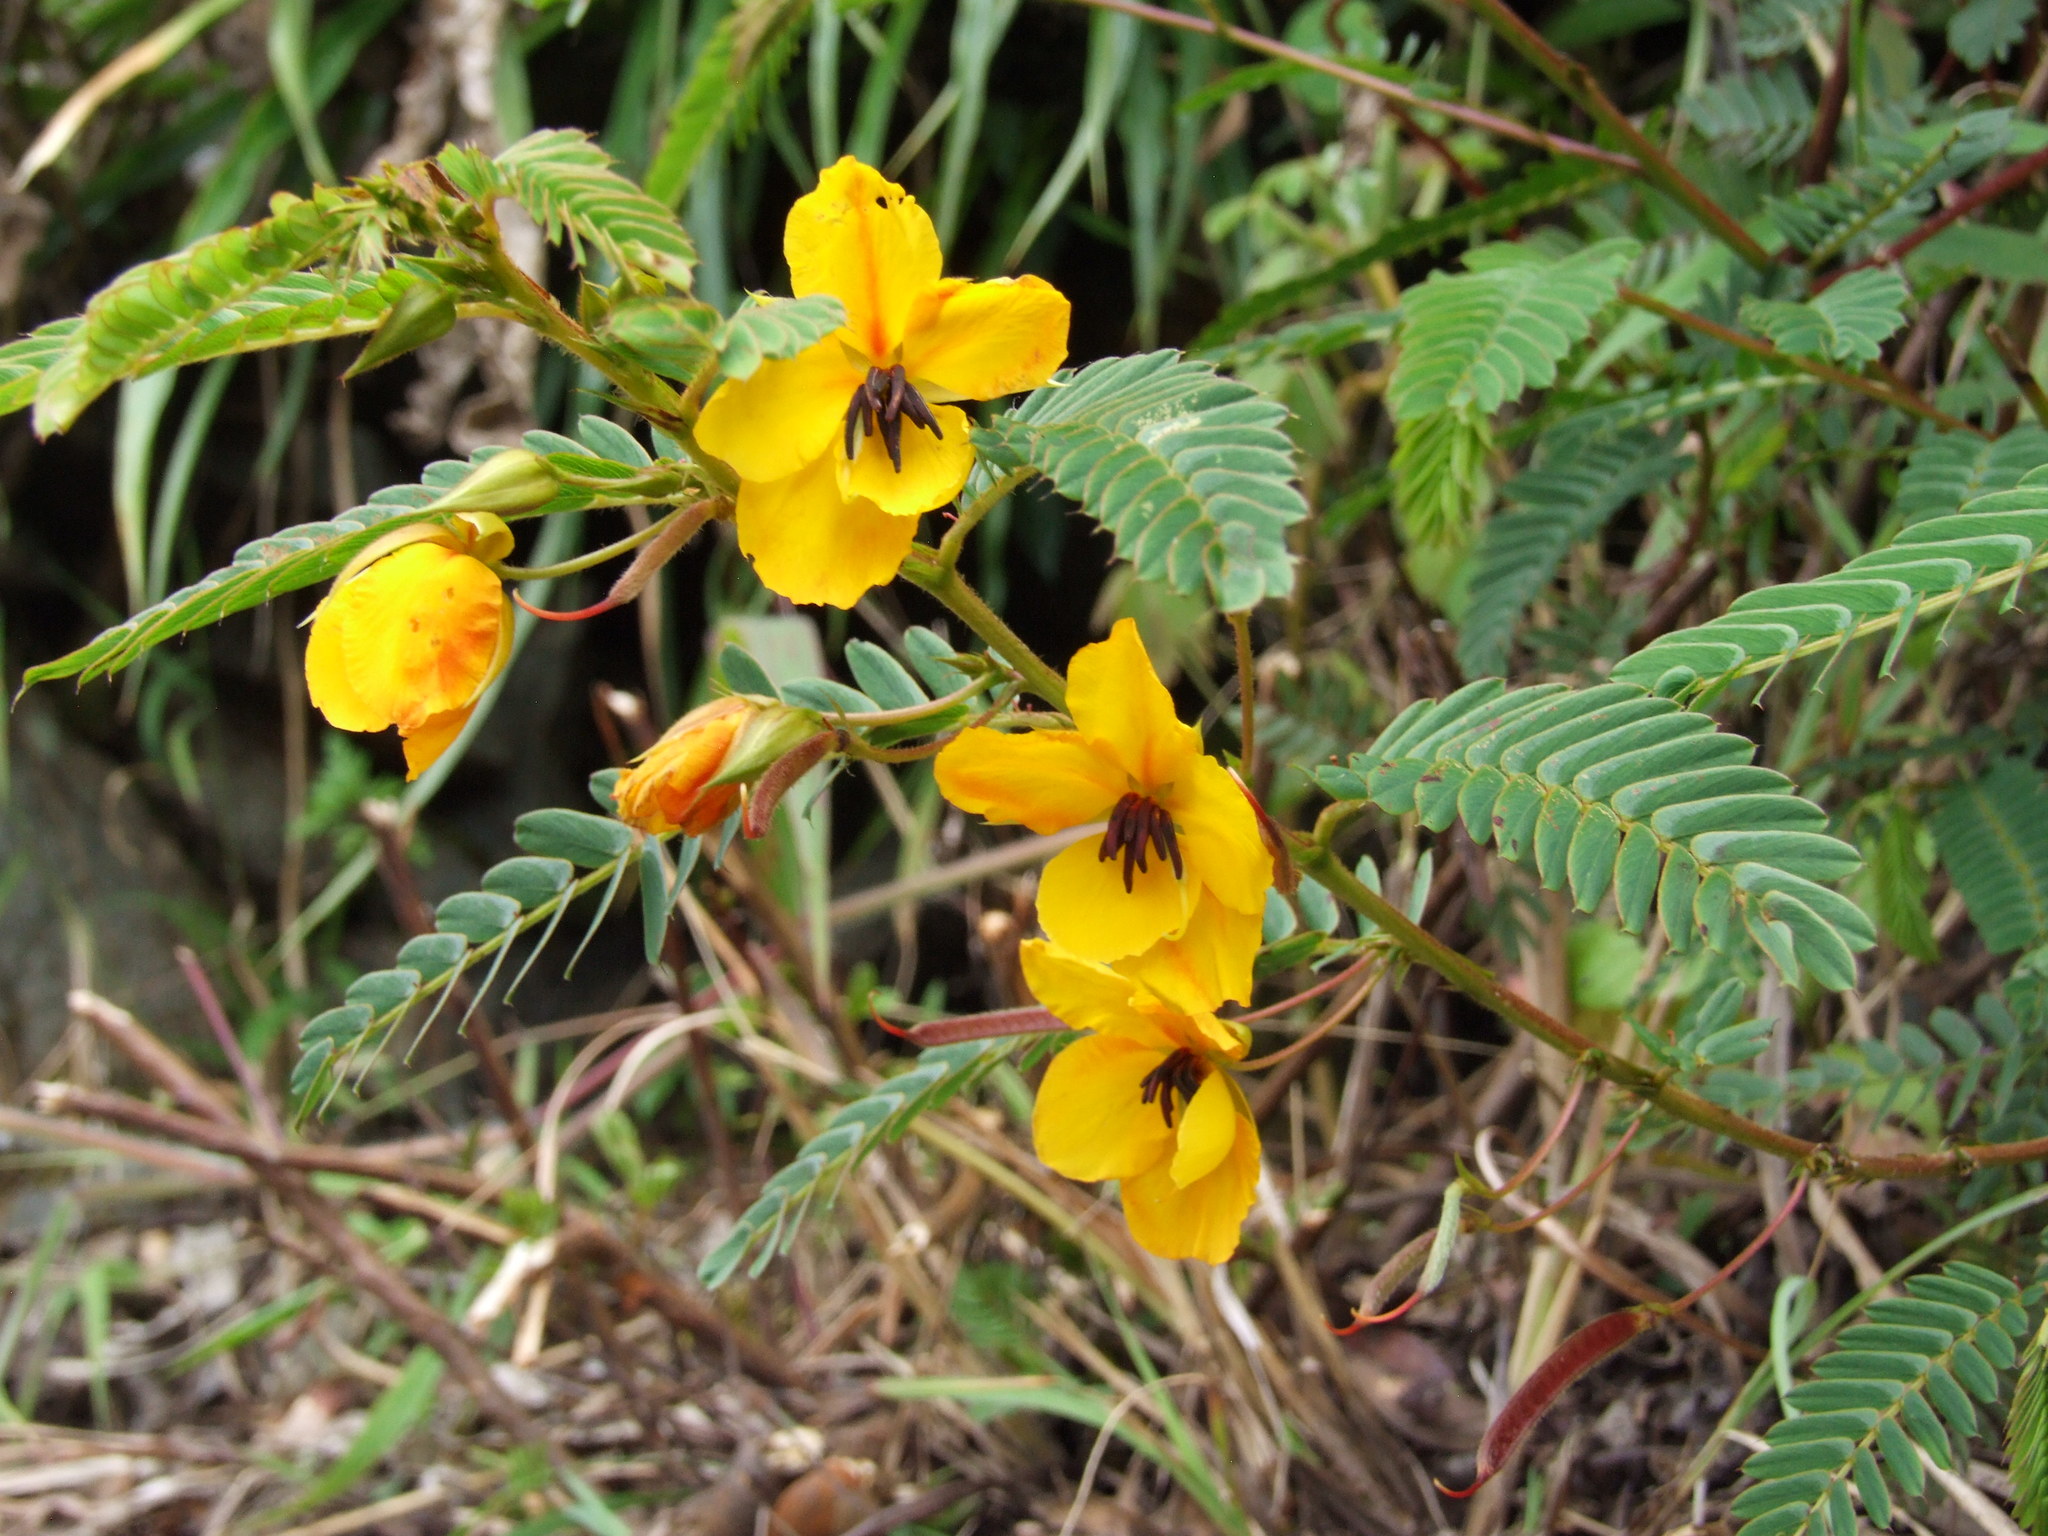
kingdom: Plantae
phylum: Tracheophyta
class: Magnoliopsida
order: Fabales
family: Fabaceae
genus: Chamaecrista
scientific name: Chamaecrista glandulosa
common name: Wild peas
